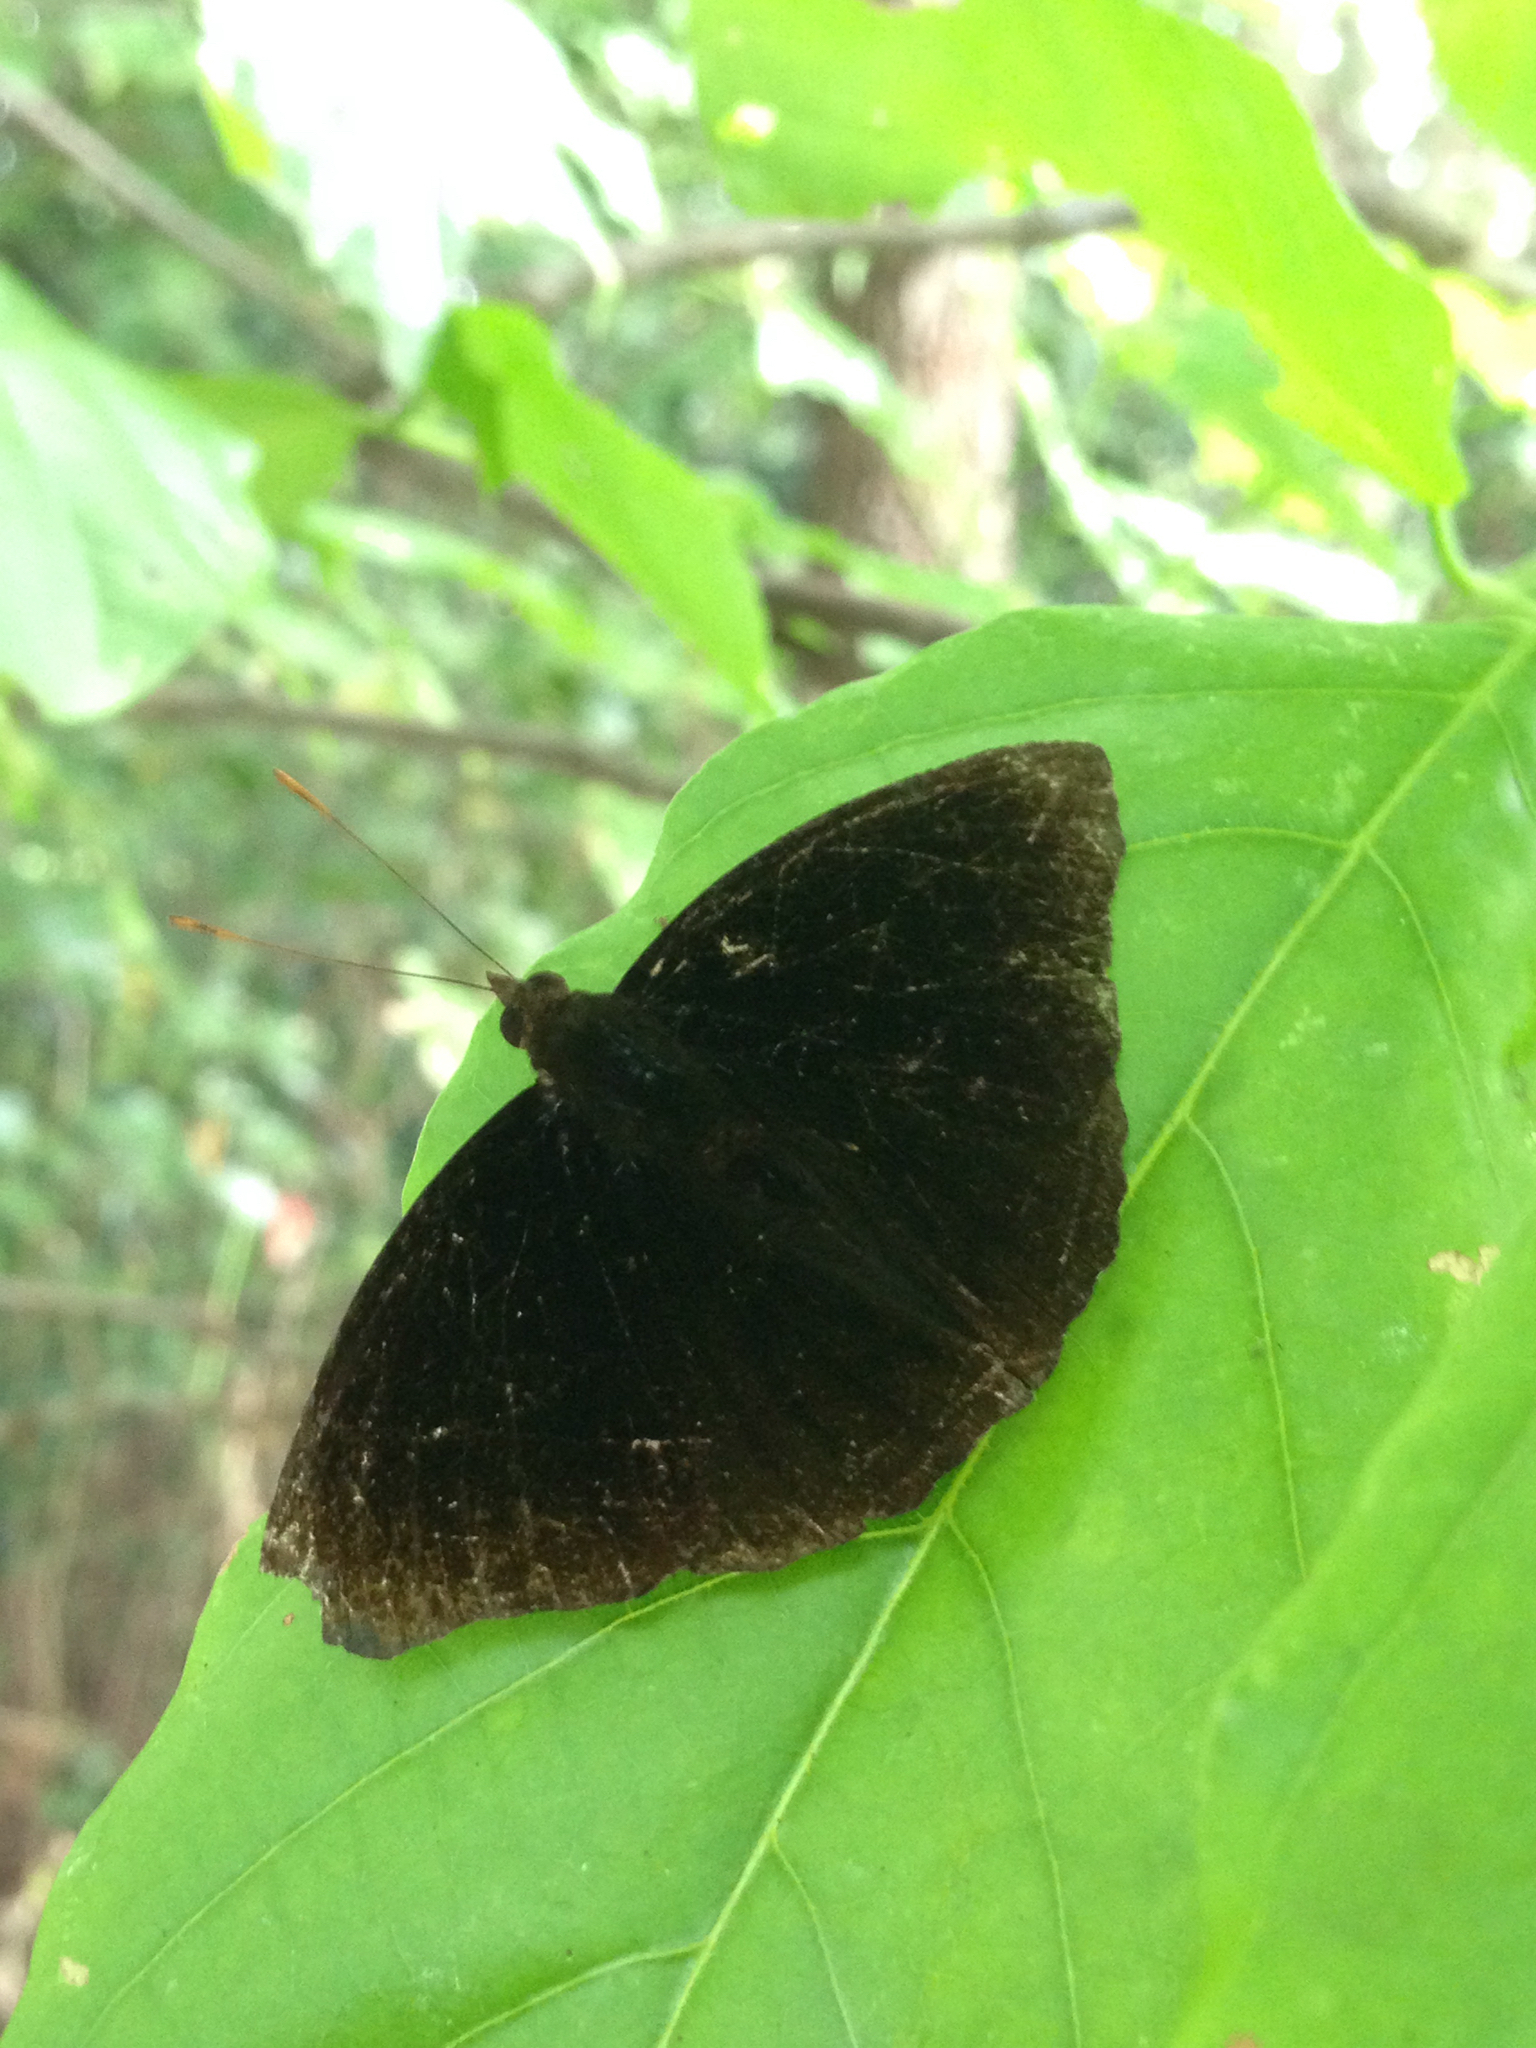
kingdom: Animalia
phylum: Arthropoda
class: Insecta
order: Lepidoptera
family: Nymphalidae
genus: Apatura
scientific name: Apatura Rohana spec
